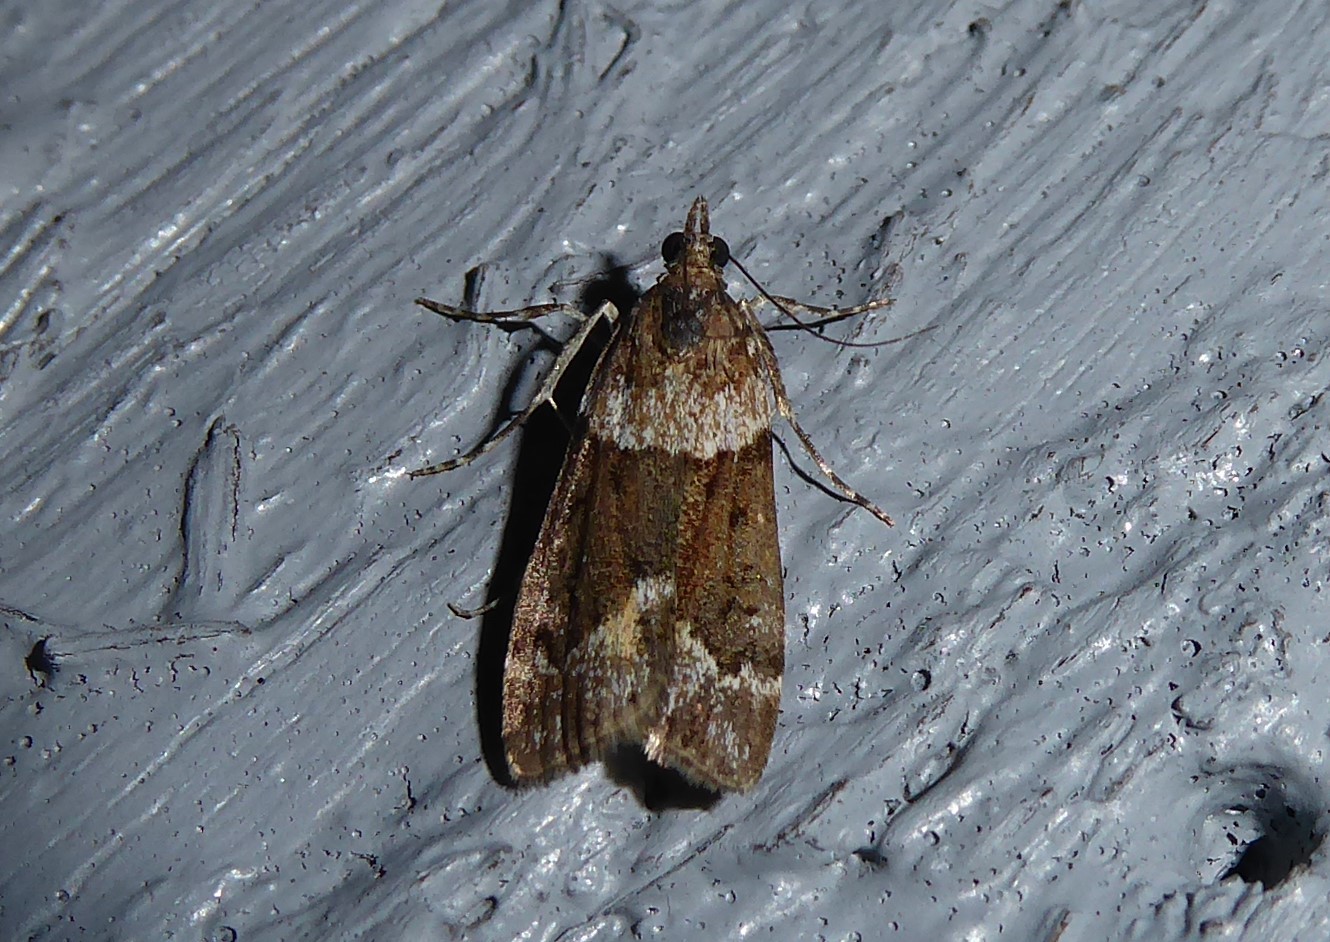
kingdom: Animalia
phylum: Arthropoda
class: Insecta
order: Lepidoptera
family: Crambidae
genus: Eudonia
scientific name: Eudonia submarginalis
